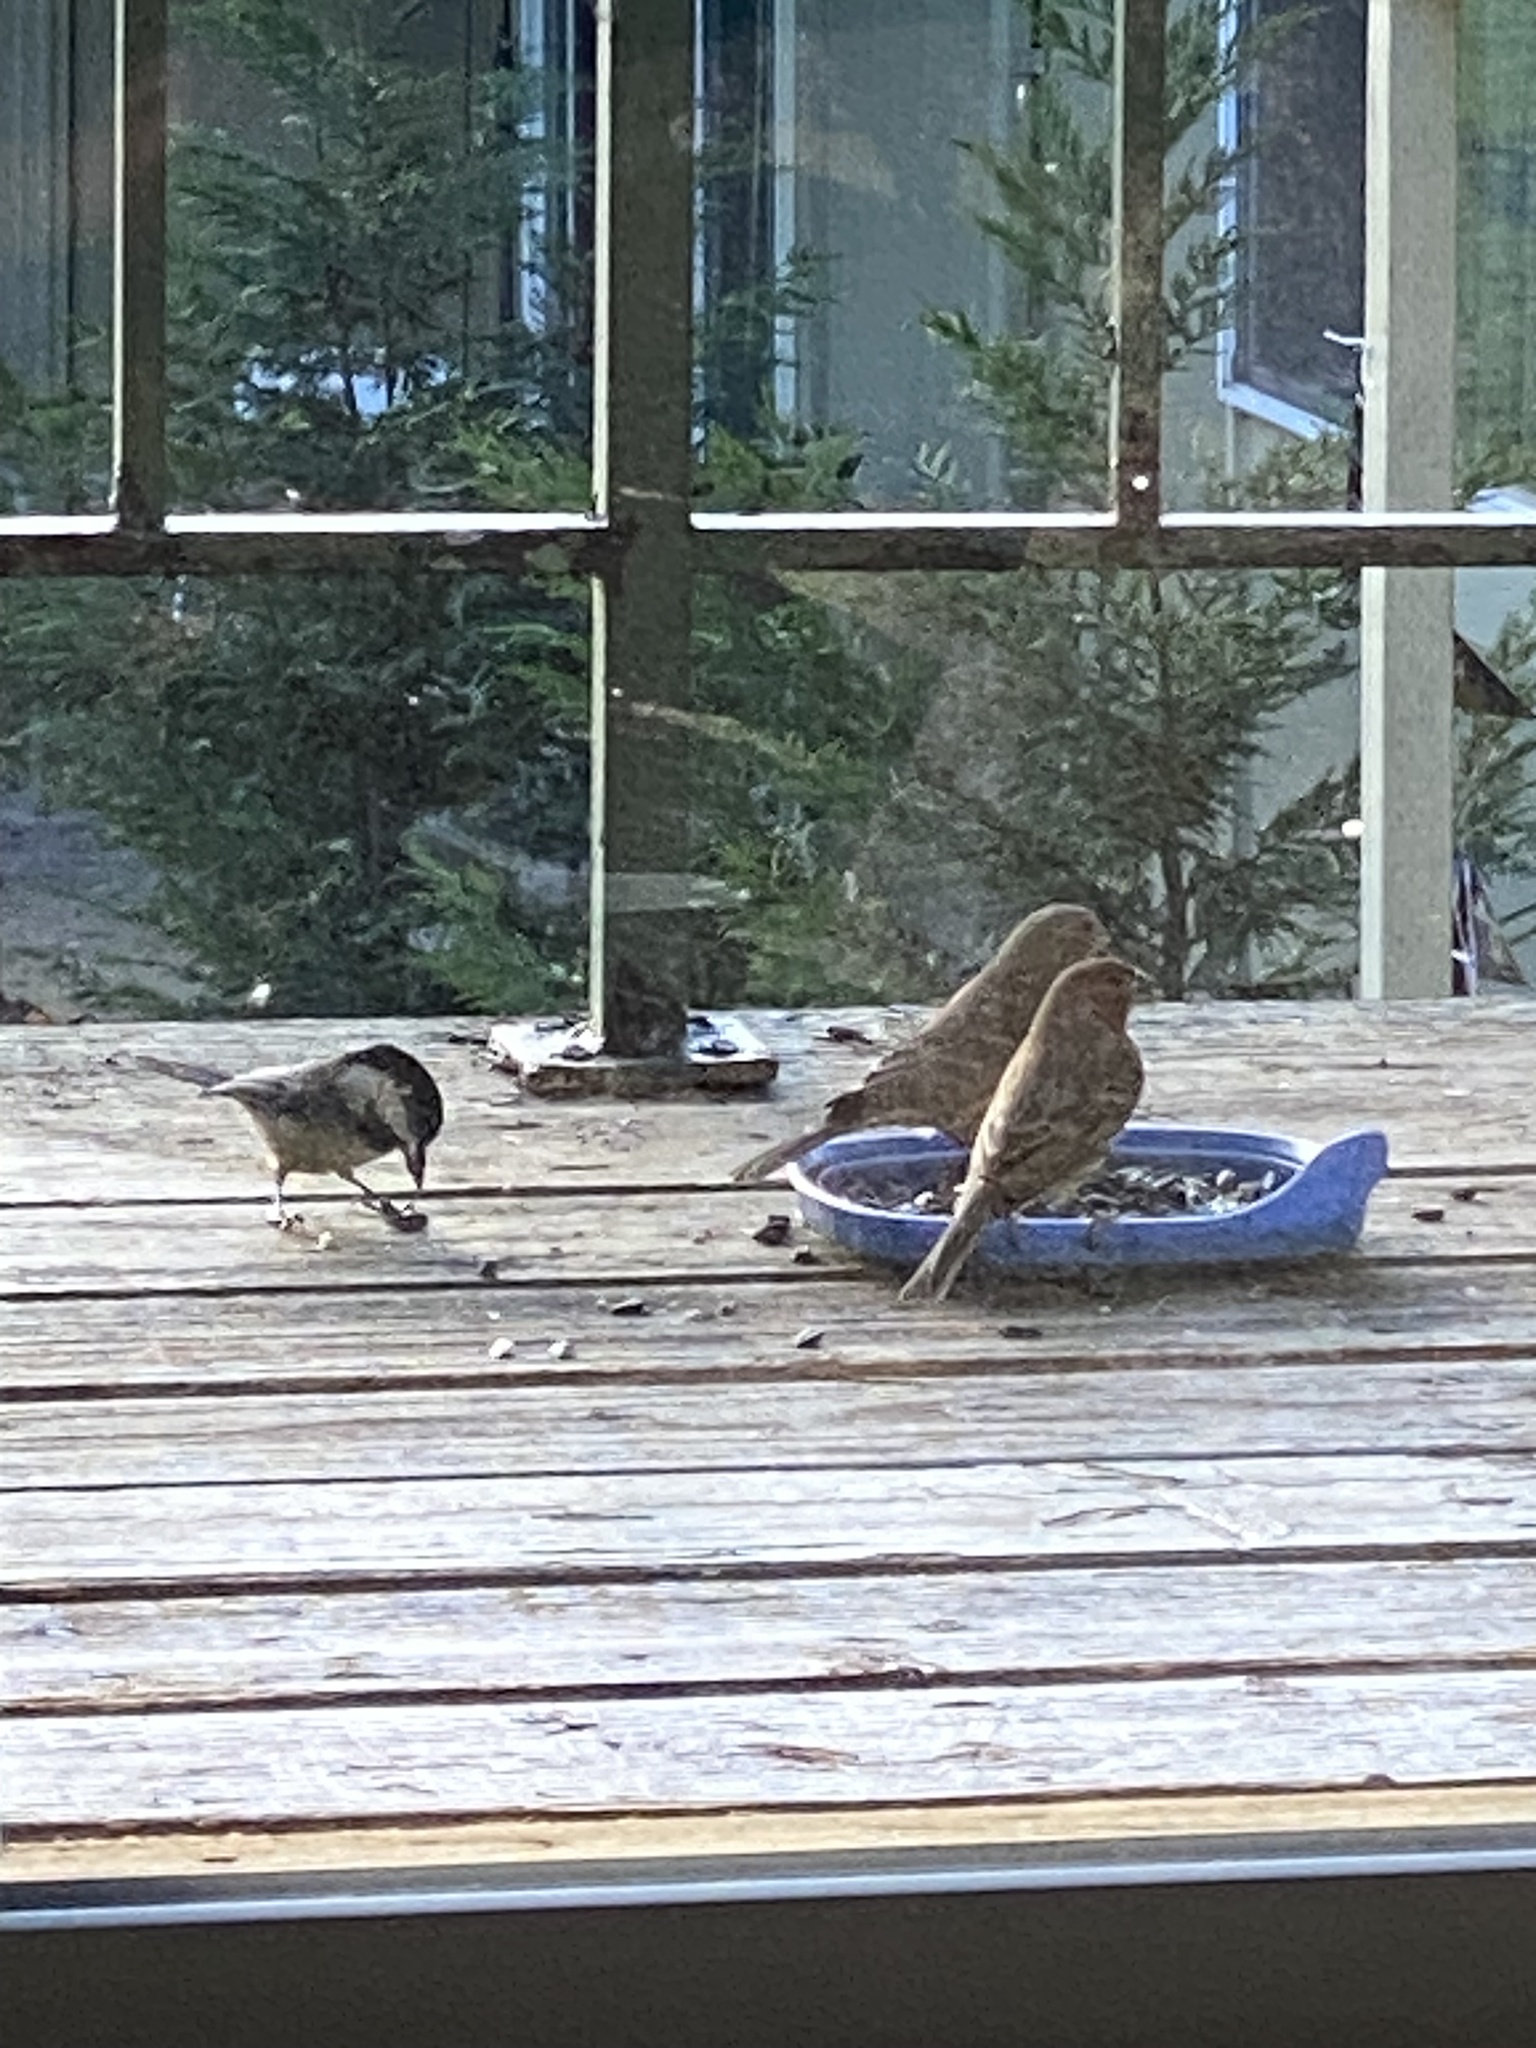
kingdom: Animalia
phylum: Chordata
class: Aves
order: Passeriformes
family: Fringillidae
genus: Haemorhous
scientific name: Haemorhous mexicanus
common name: House finch
